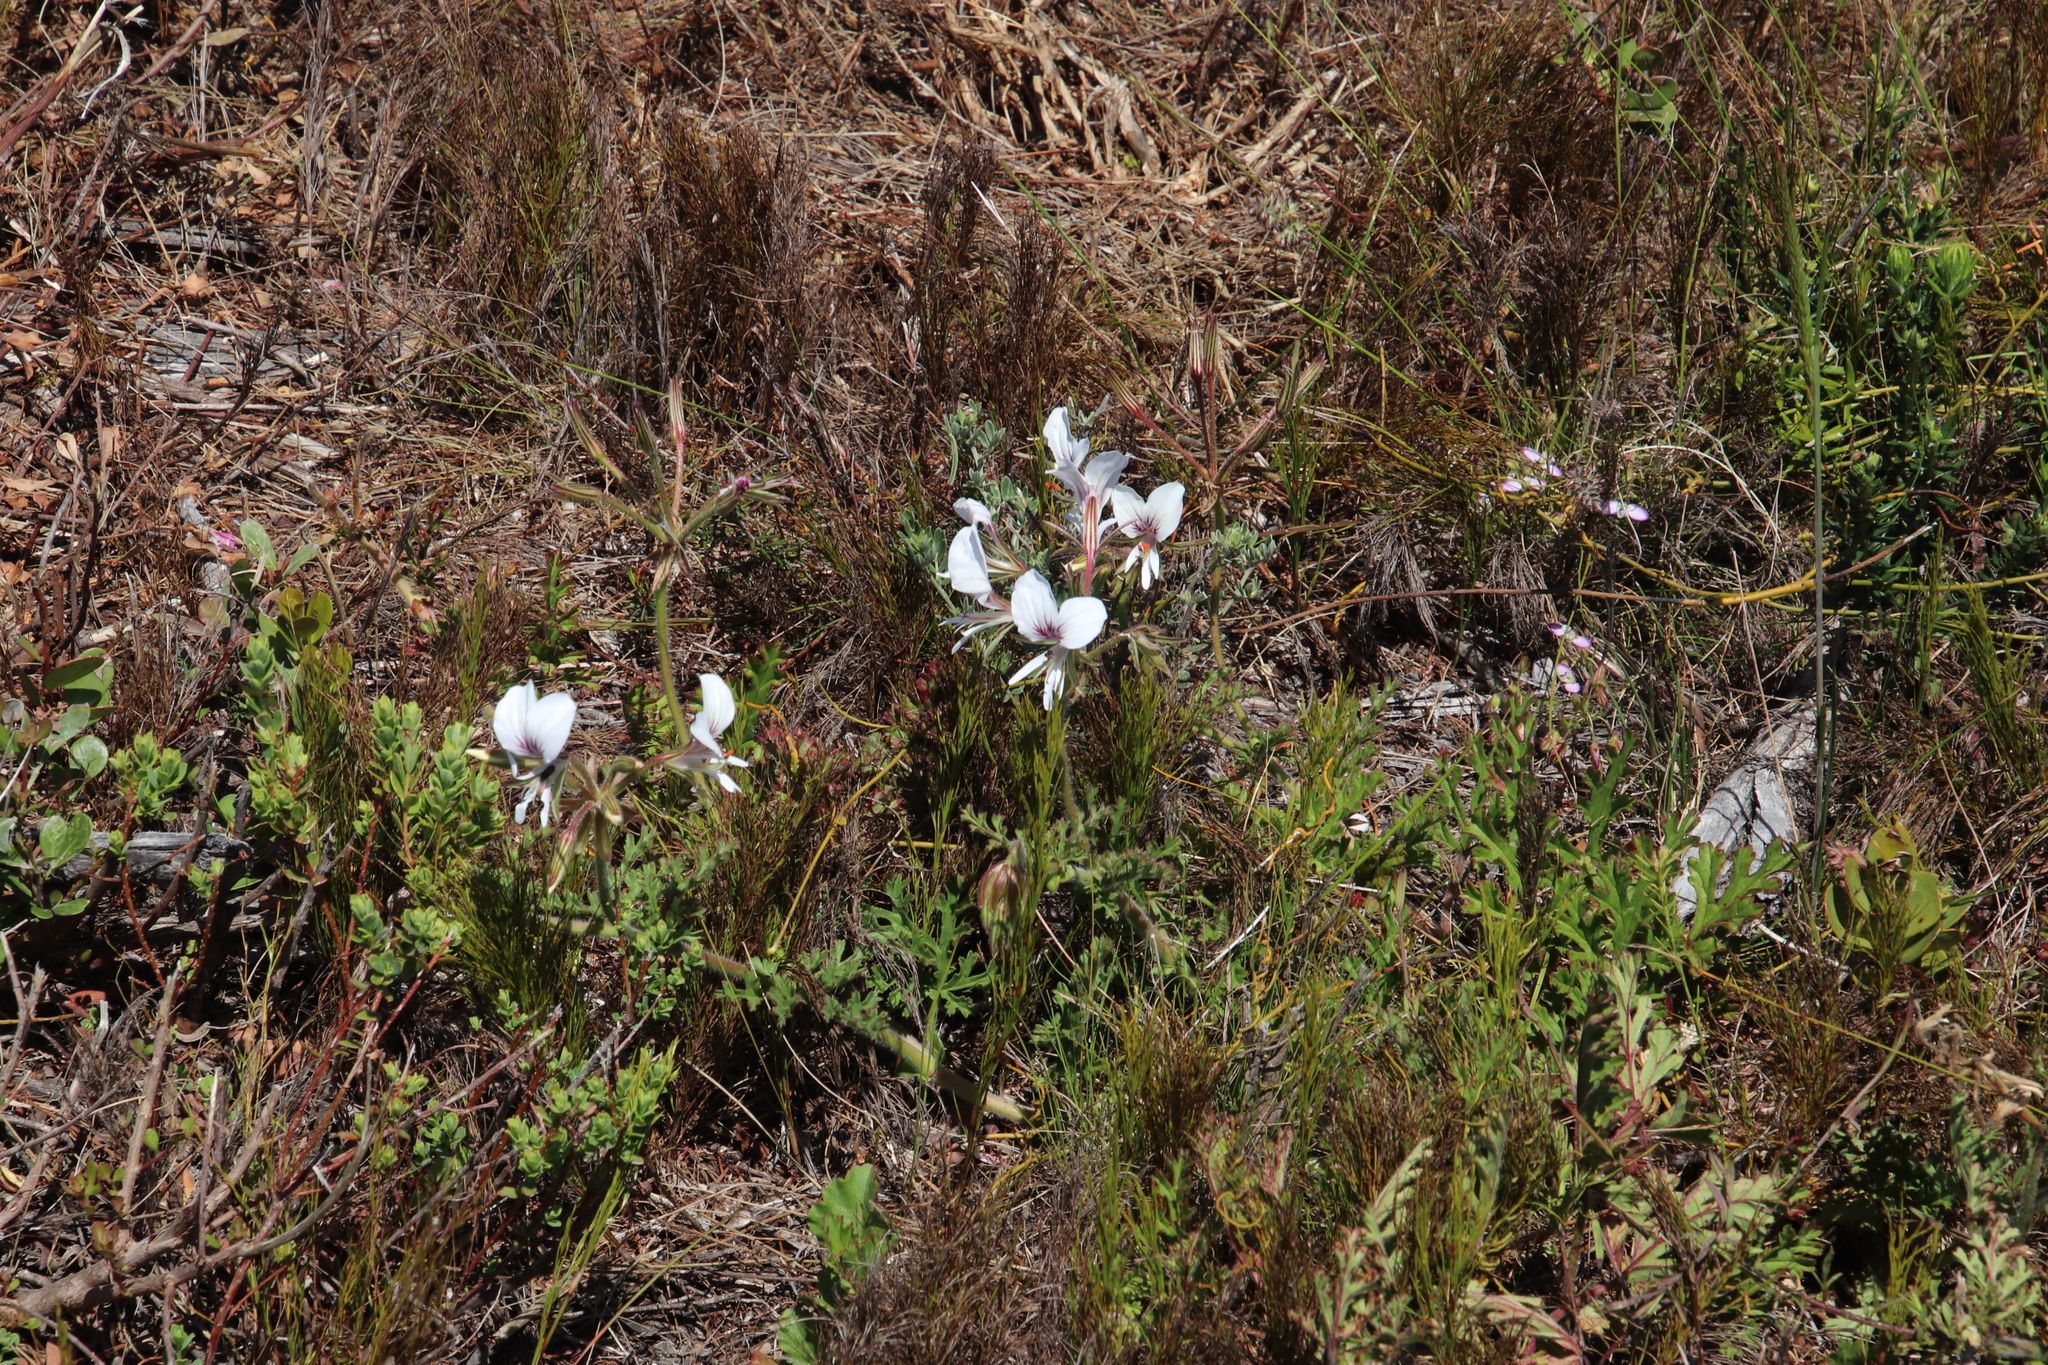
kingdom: Plantae
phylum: Tracheophyta
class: Magnoliopsida
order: Geraniales
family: Geraniaceae
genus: Pelargonium
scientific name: Pelargonium suburbanum
